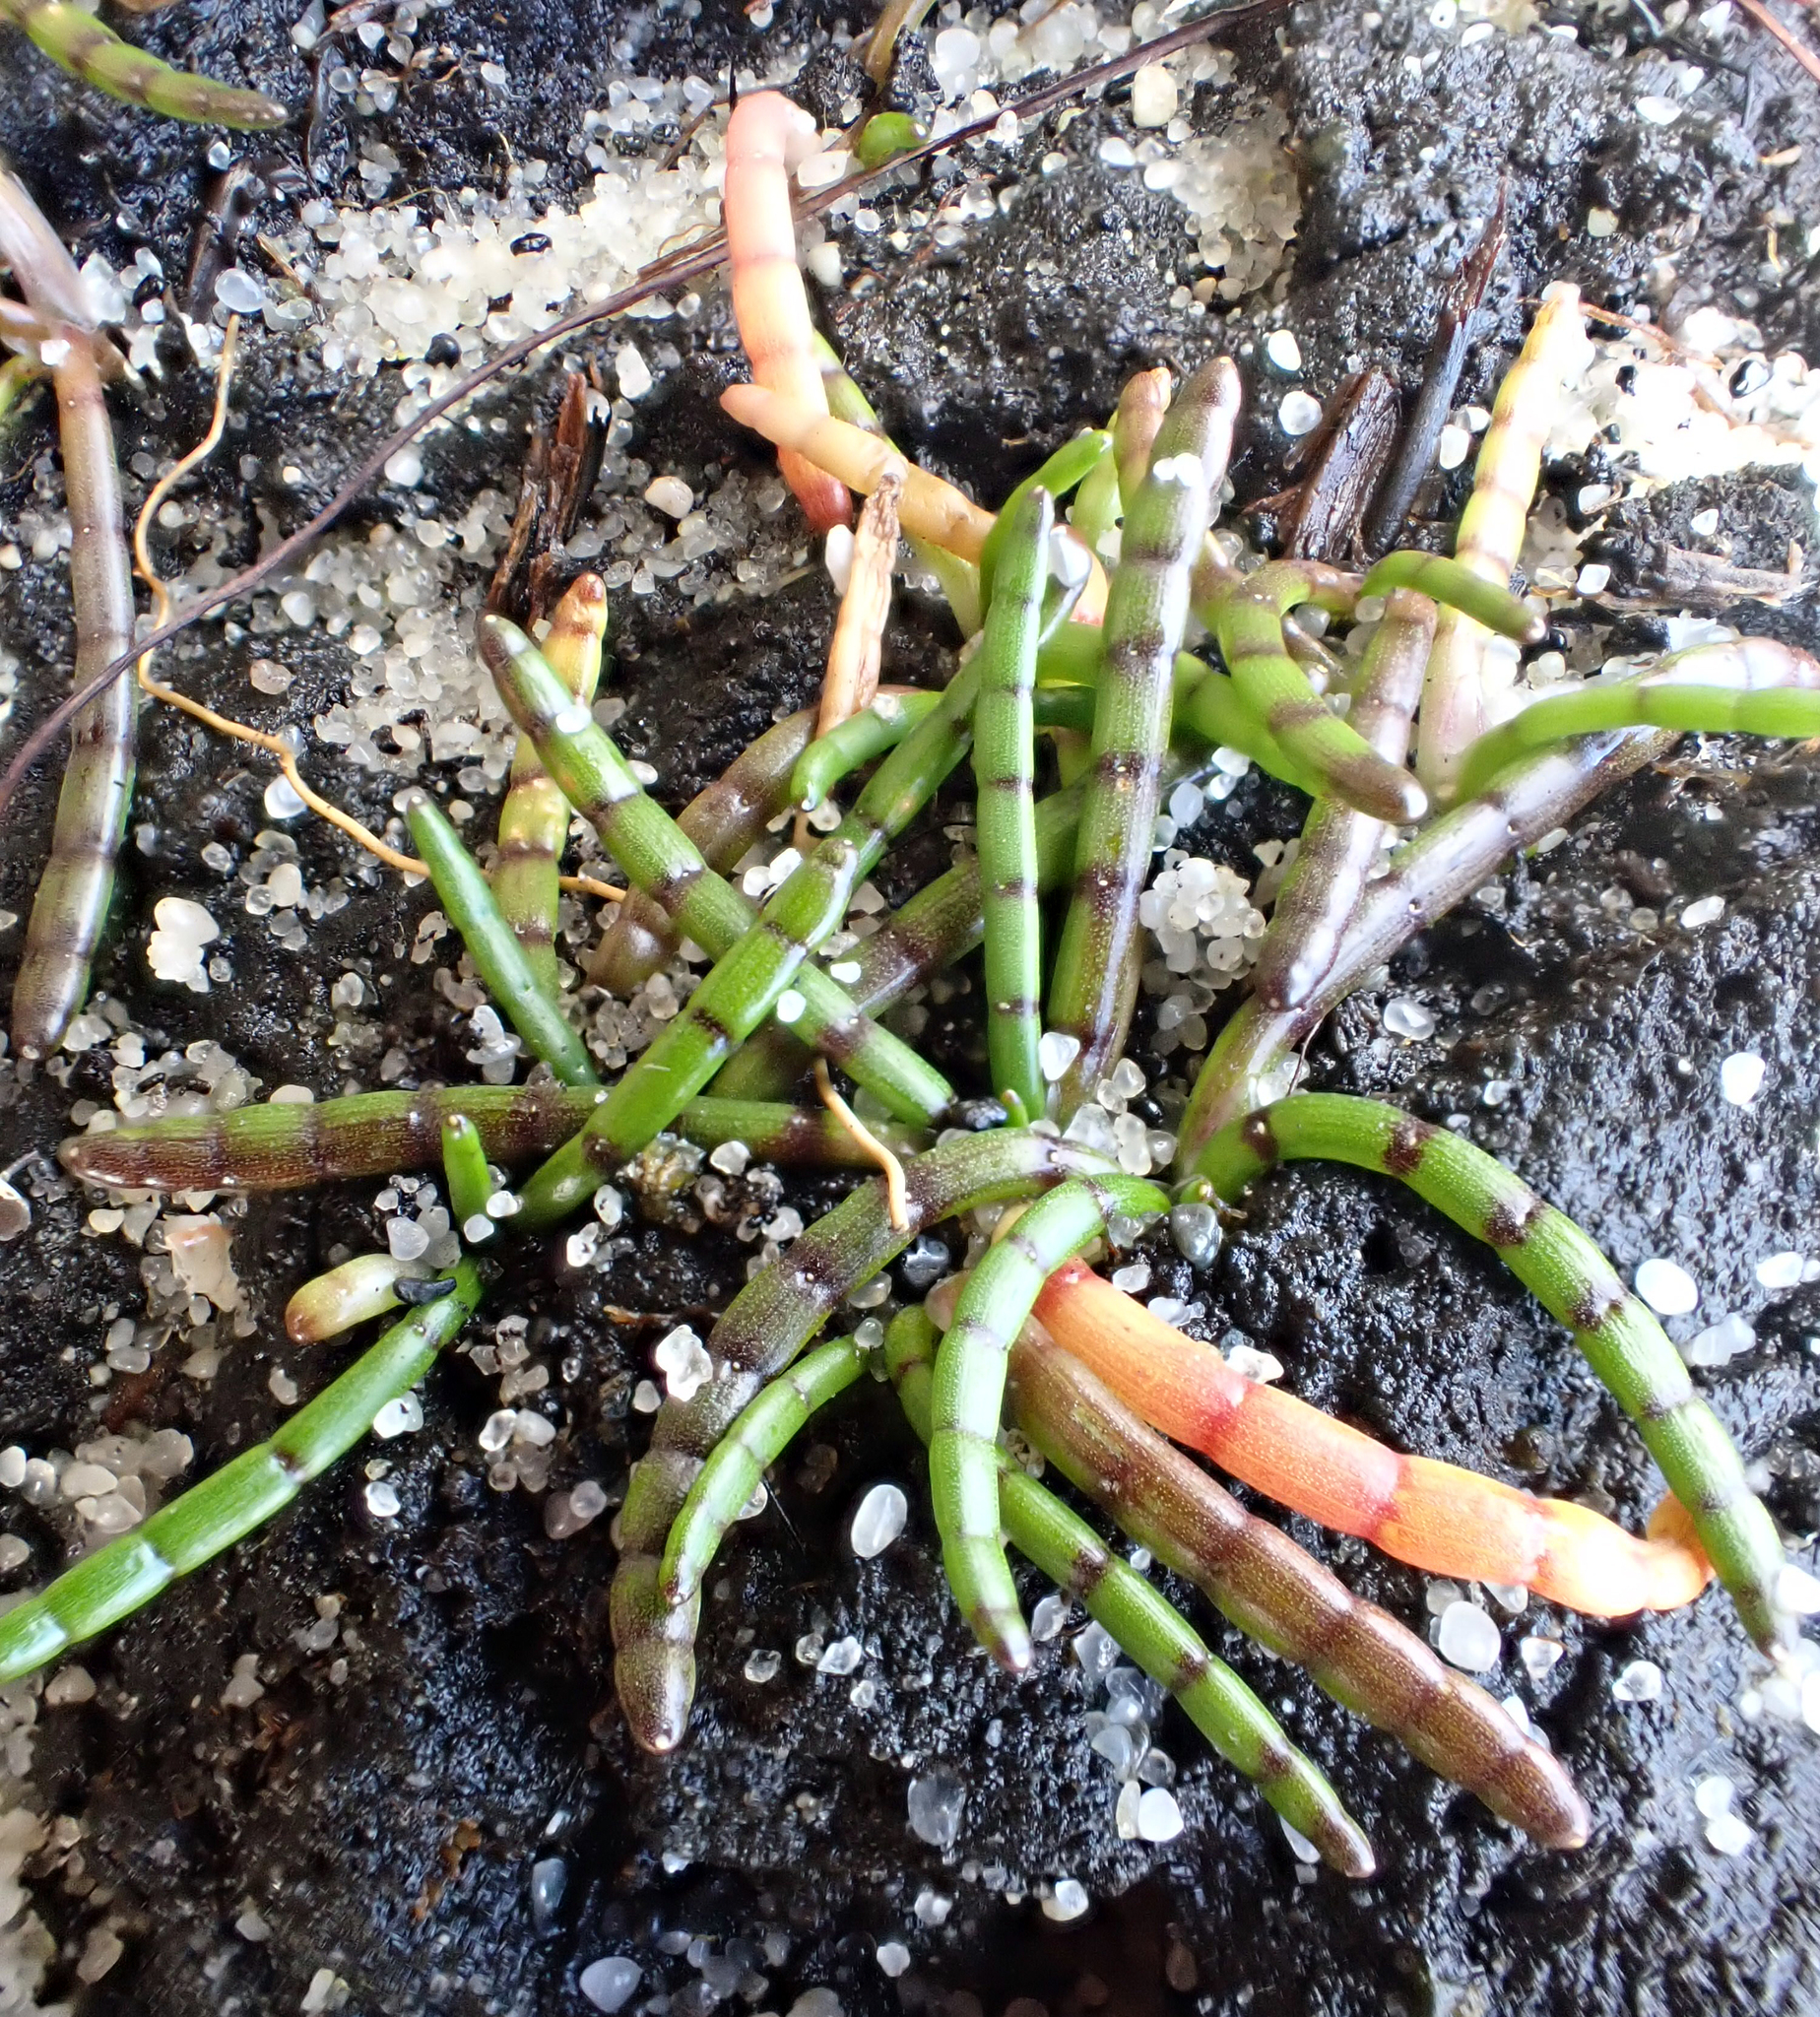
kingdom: Plantae
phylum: Tracheophyta
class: Magnoliopsida
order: Apiales
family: Apiaceae
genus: Lilaeopsis
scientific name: Lilaeopsis novae-zelandiae
